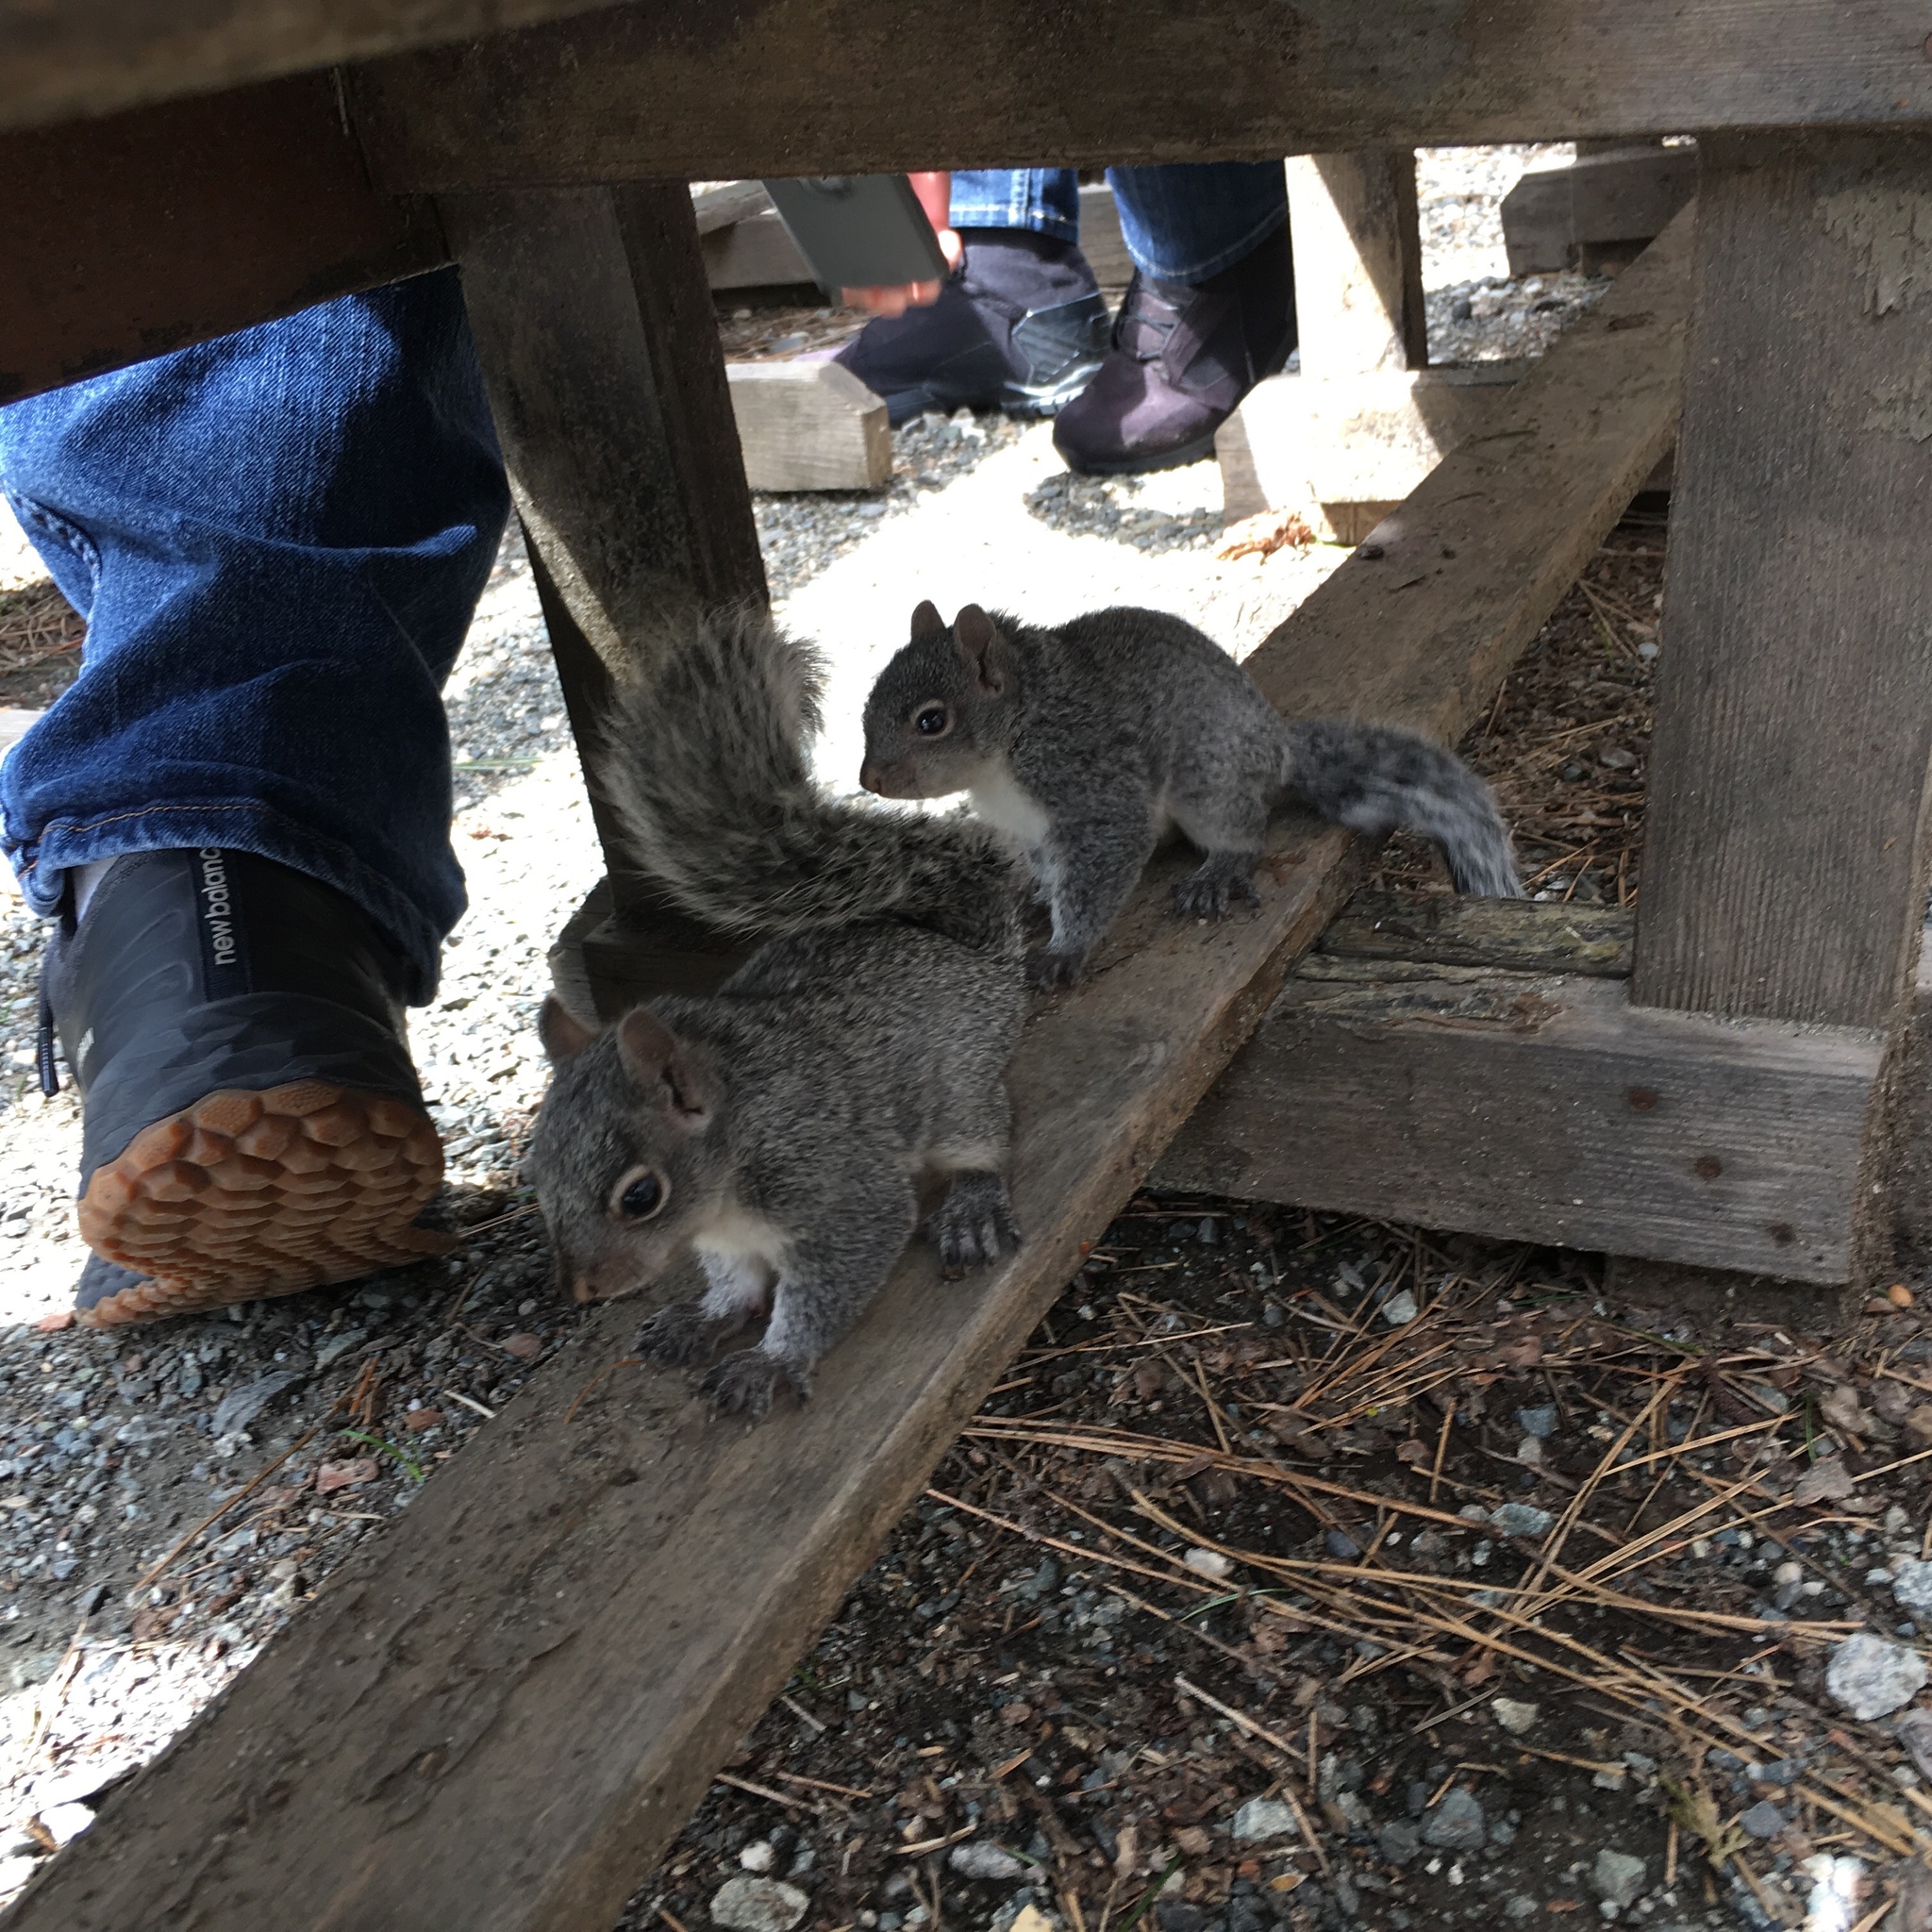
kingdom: Animalia
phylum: Chordata
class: Mammalia
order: Rodentia
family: Sciuridae
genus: Sciurus
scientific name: Sciurus griseus
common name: Western gray squirrel
